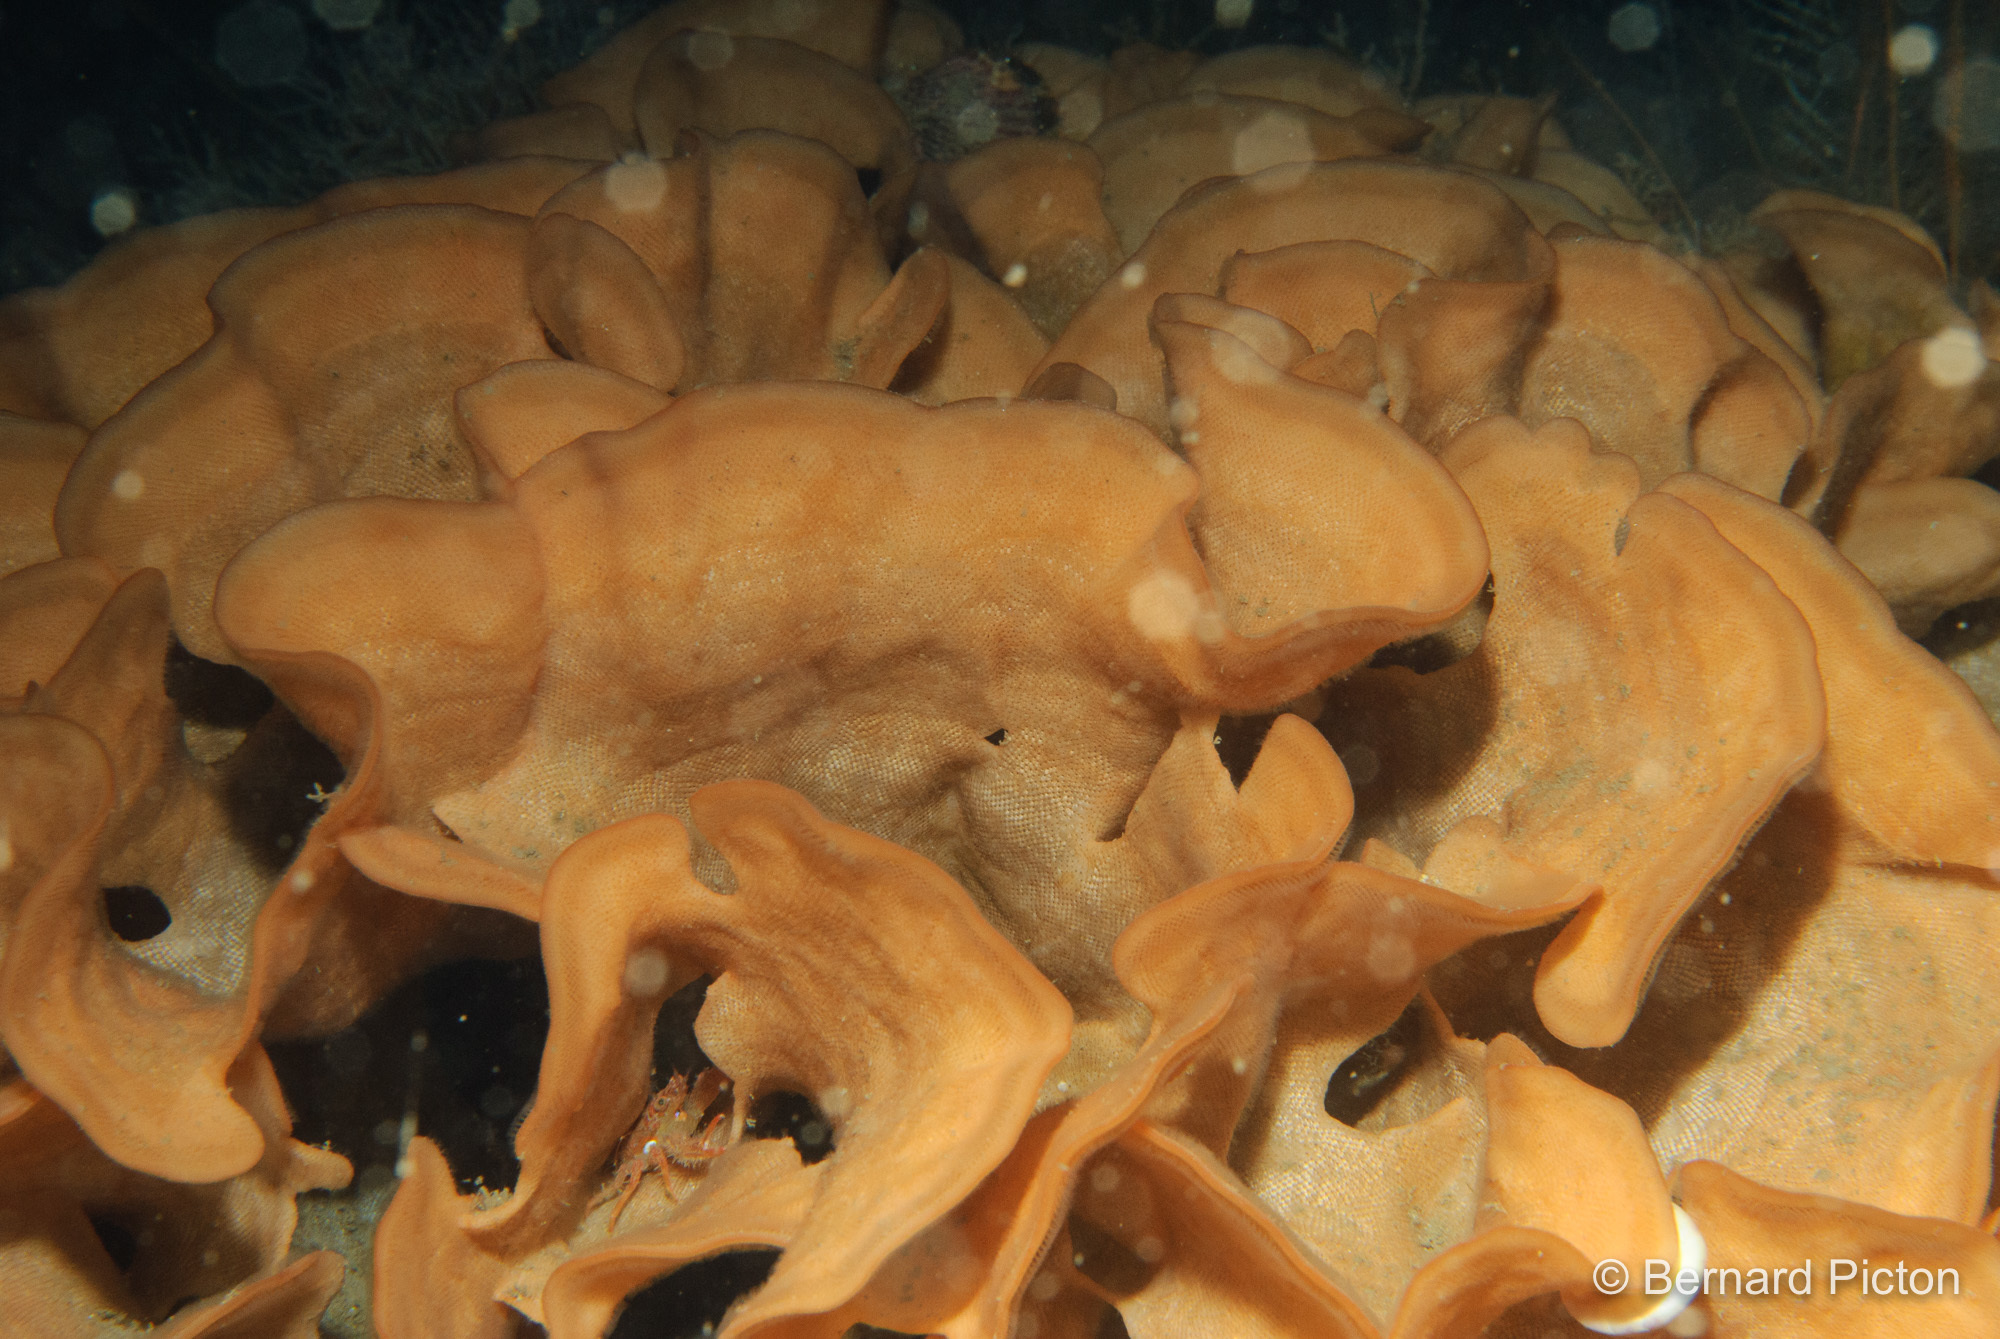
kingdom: Animalia
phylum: Bryozoa
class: Gymnolaemata
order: Cheilostomatida
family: Bitectiporidae
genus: Pentapora
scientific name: Pentapora foliacea
